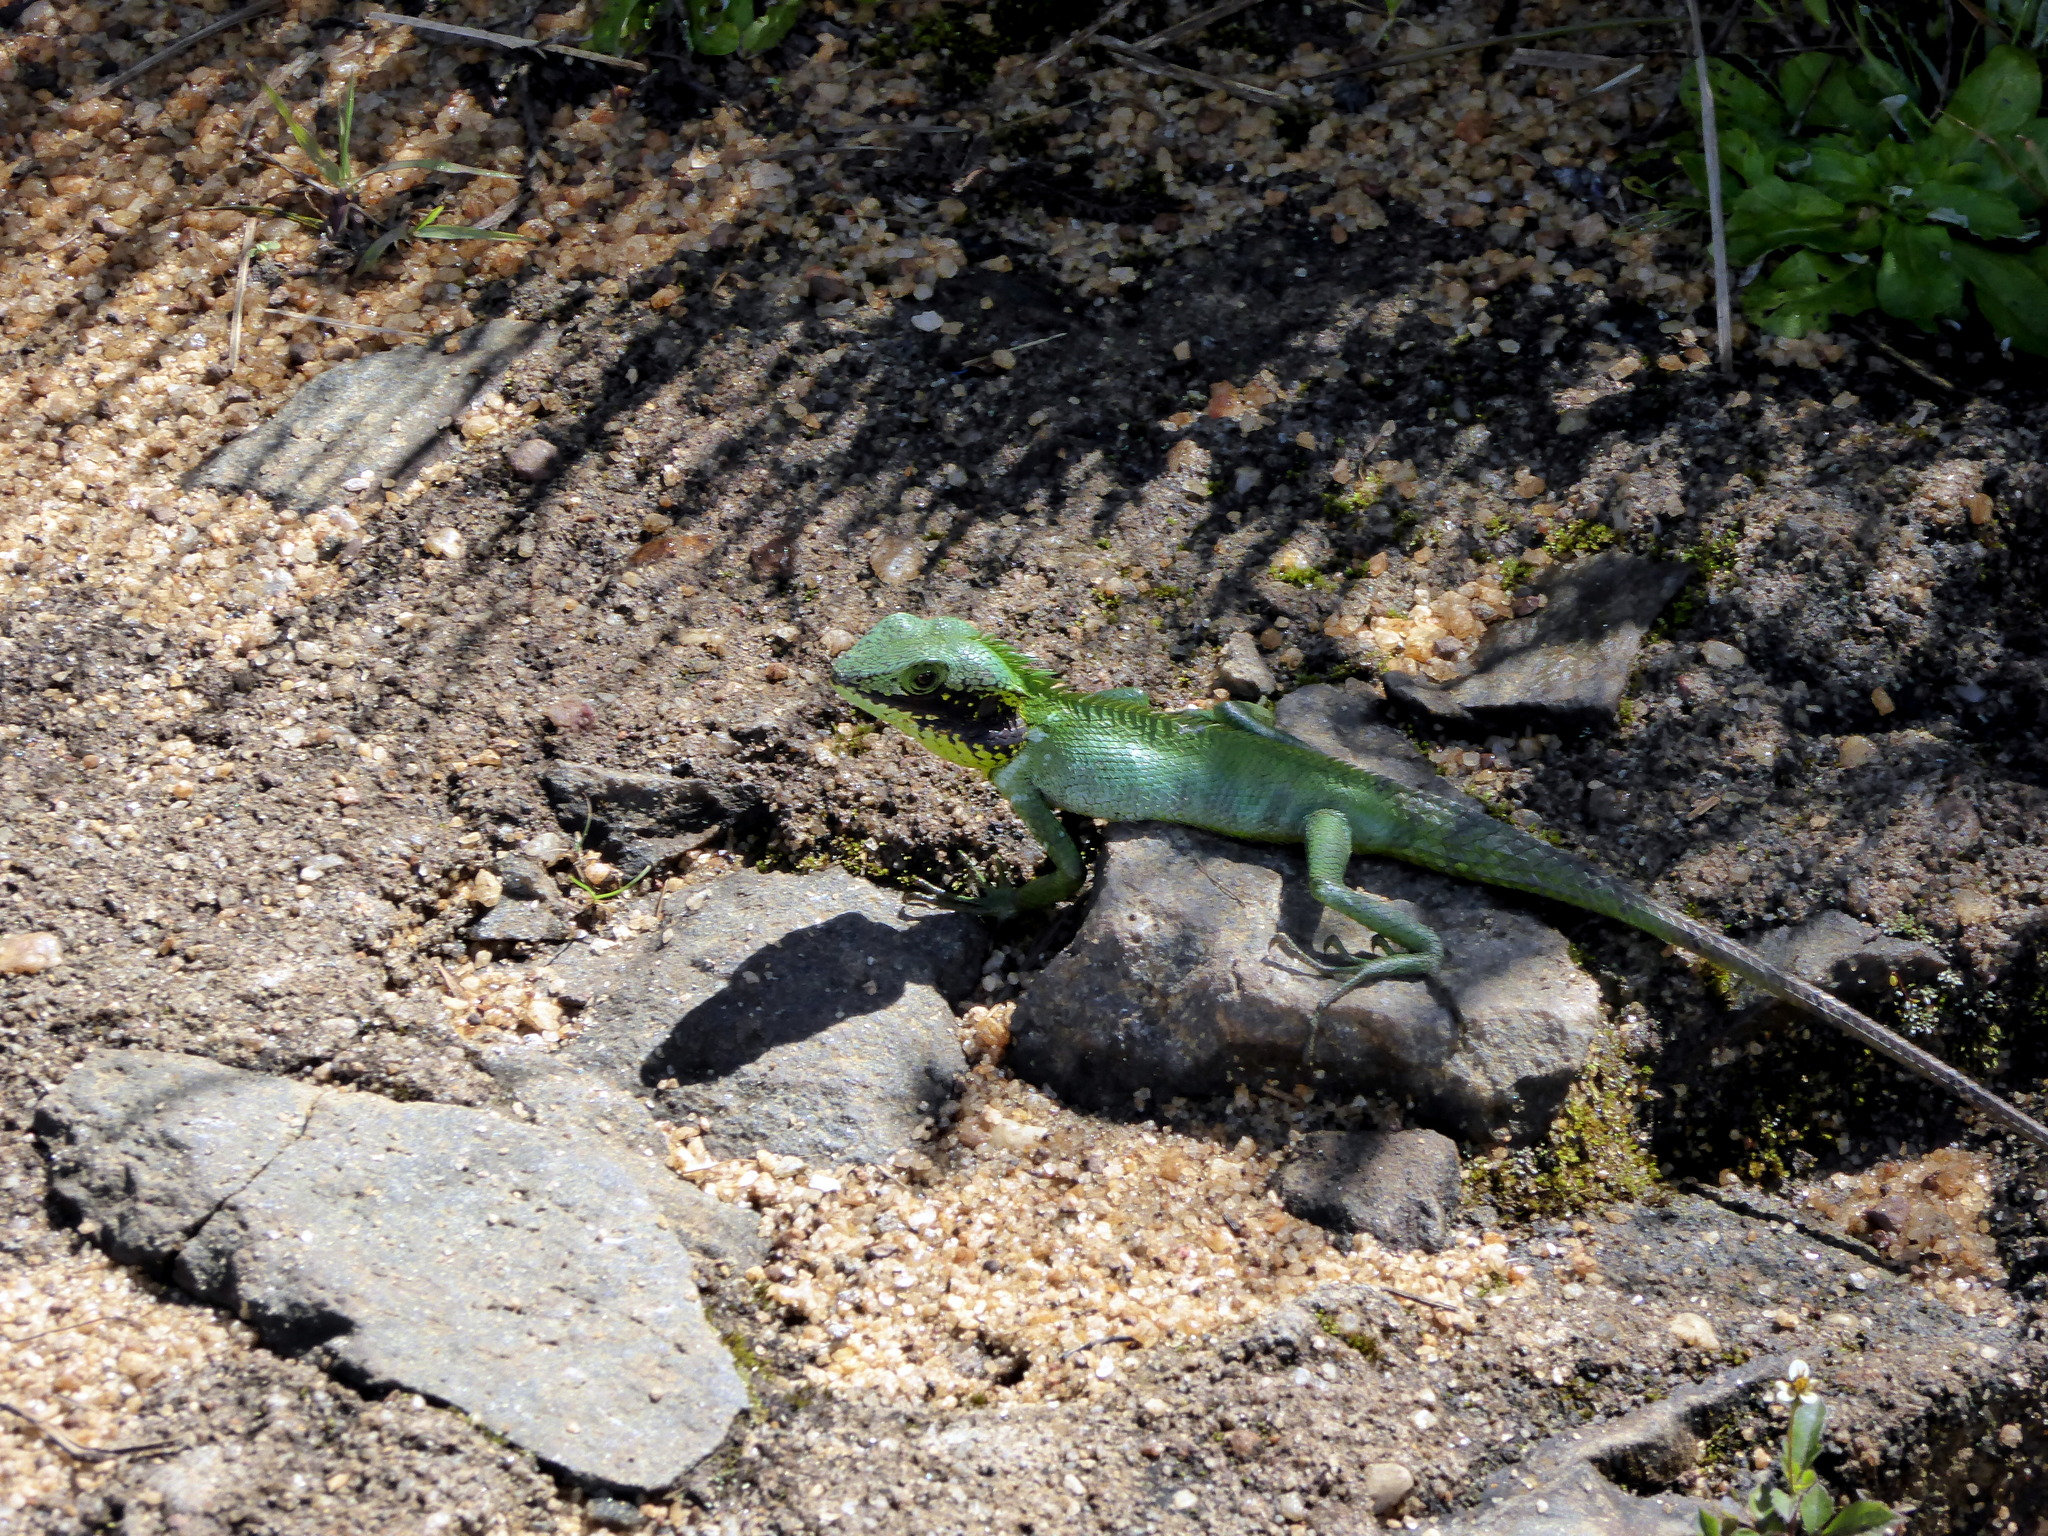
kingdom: Animalia
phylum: Chordata
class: Squamata
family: Agamidae
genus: Calotes
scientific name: Calotes nigrilabris
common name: Black-cheek lizard
